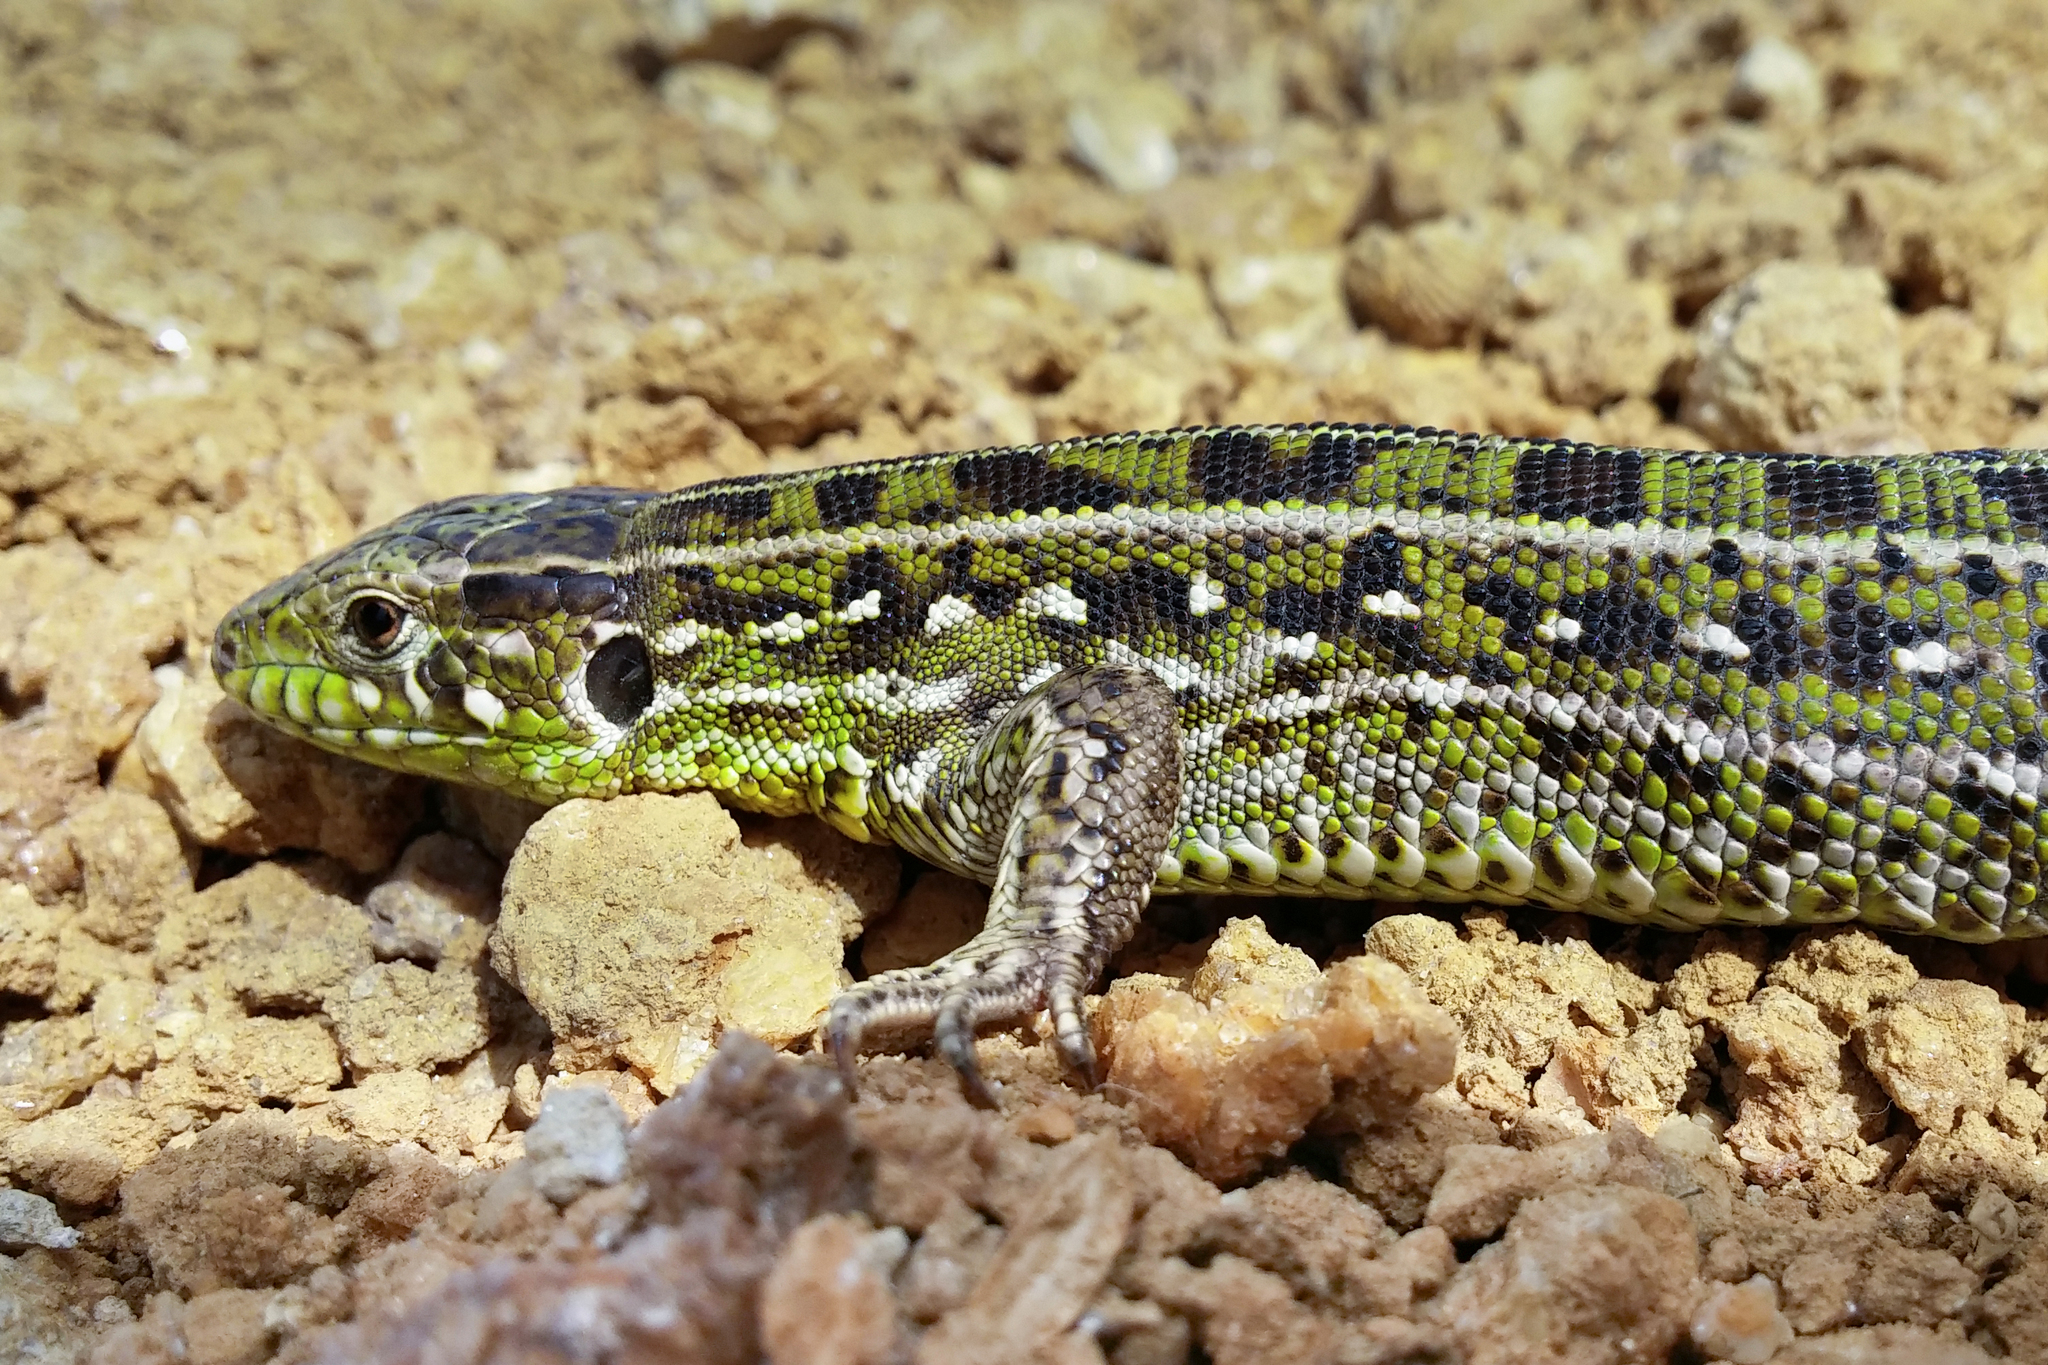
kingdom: Animalia
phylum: Chordata
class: Squamata
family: Lacertidae
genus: Lacerta
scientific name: Lacerta agilis
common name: Sand lizard
